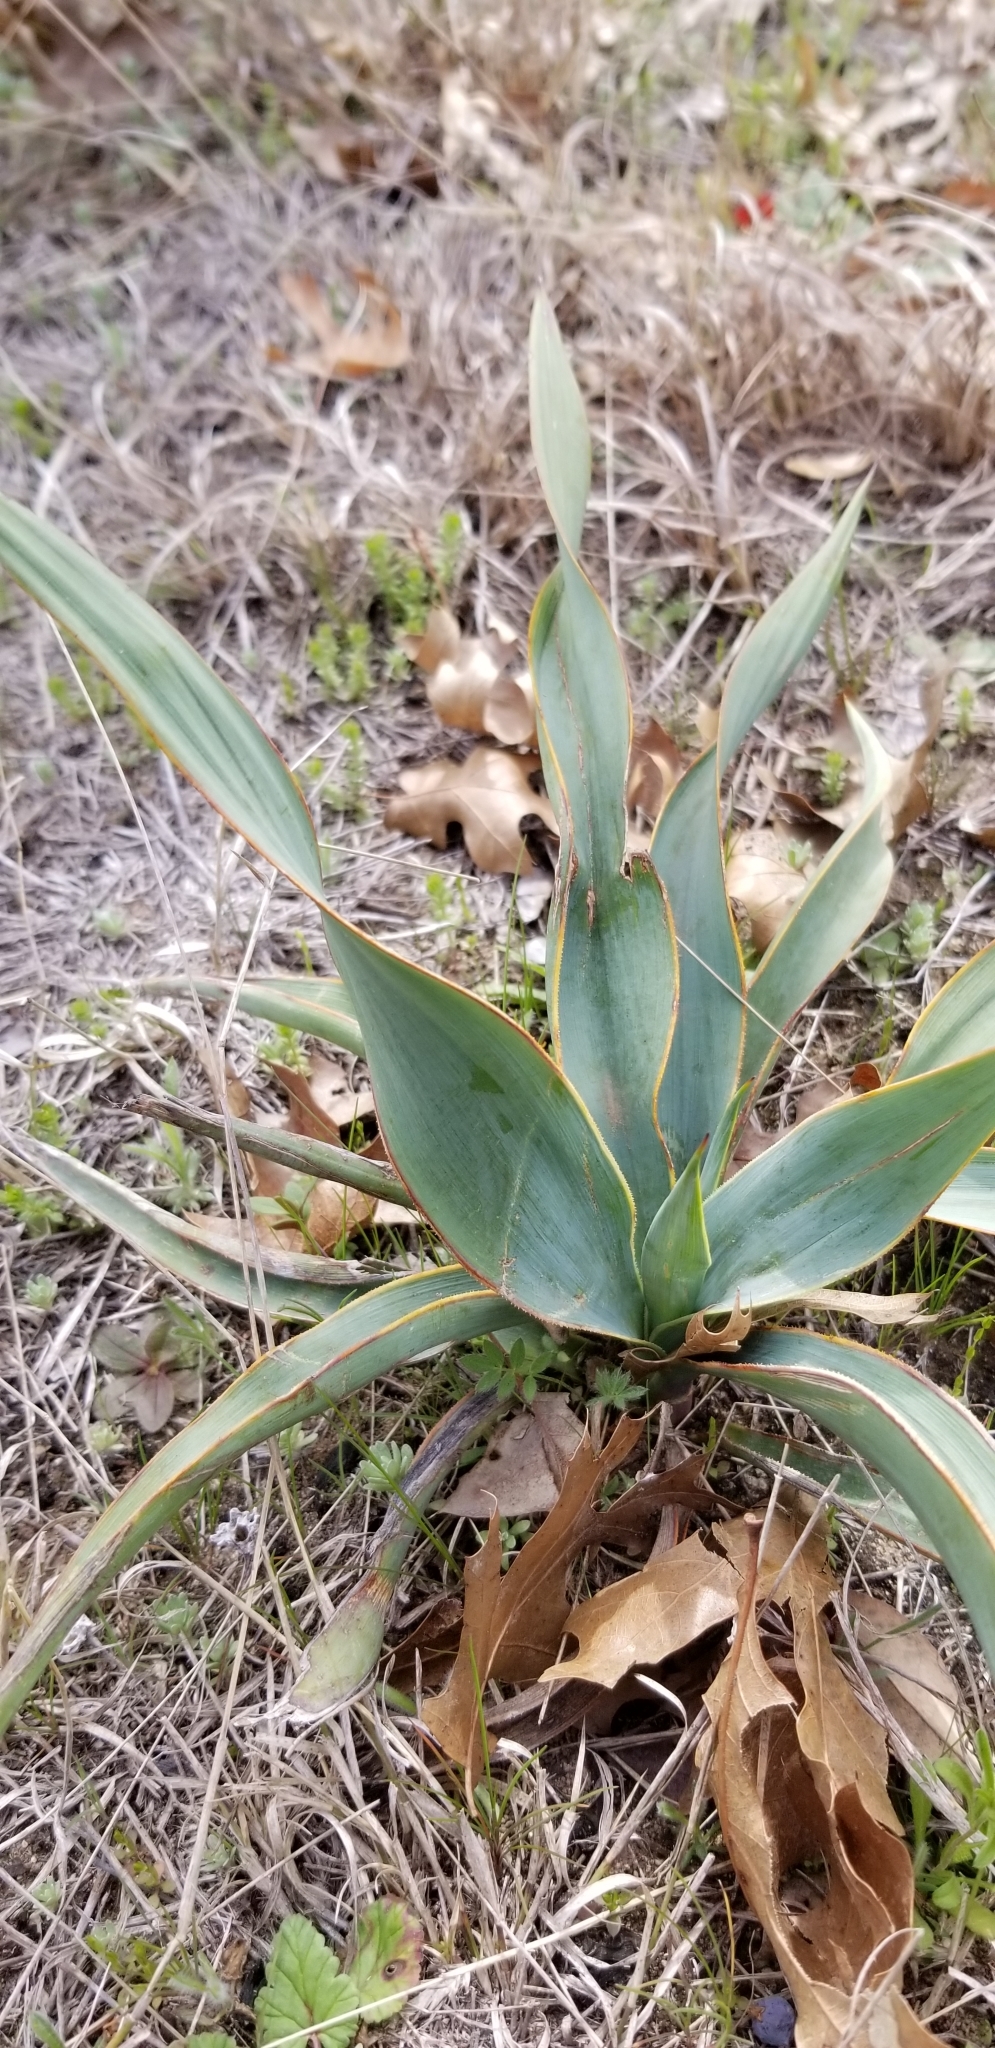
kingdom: Plantae
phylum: Tracheophyta
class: Liliopsida
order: Asparagales
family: Asparagaceae
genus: Yucca
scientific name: Yucca pallida
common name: Pale leaf yucca
